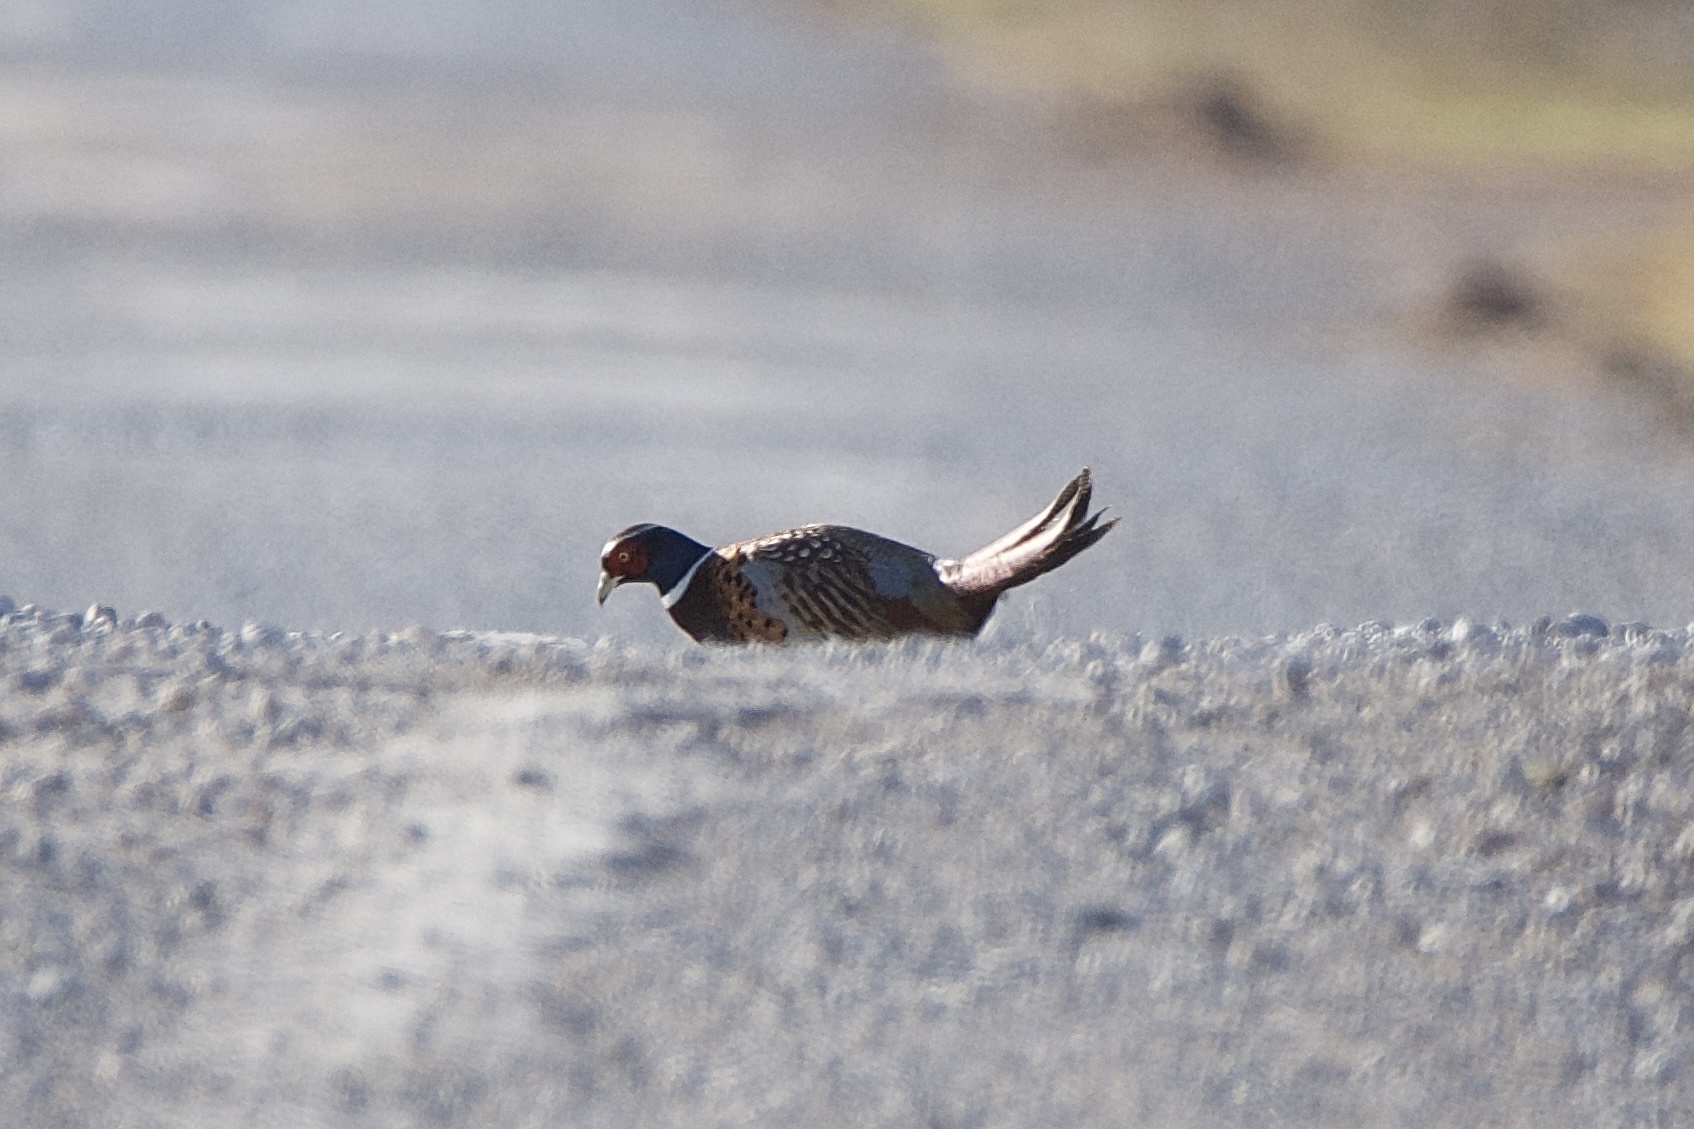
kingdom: Animalia
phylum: Chordata
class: Aves
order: Galliformes
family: Phasianidae
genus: Phasianus
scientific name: Phasianus colchicus
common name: Common pheasant
